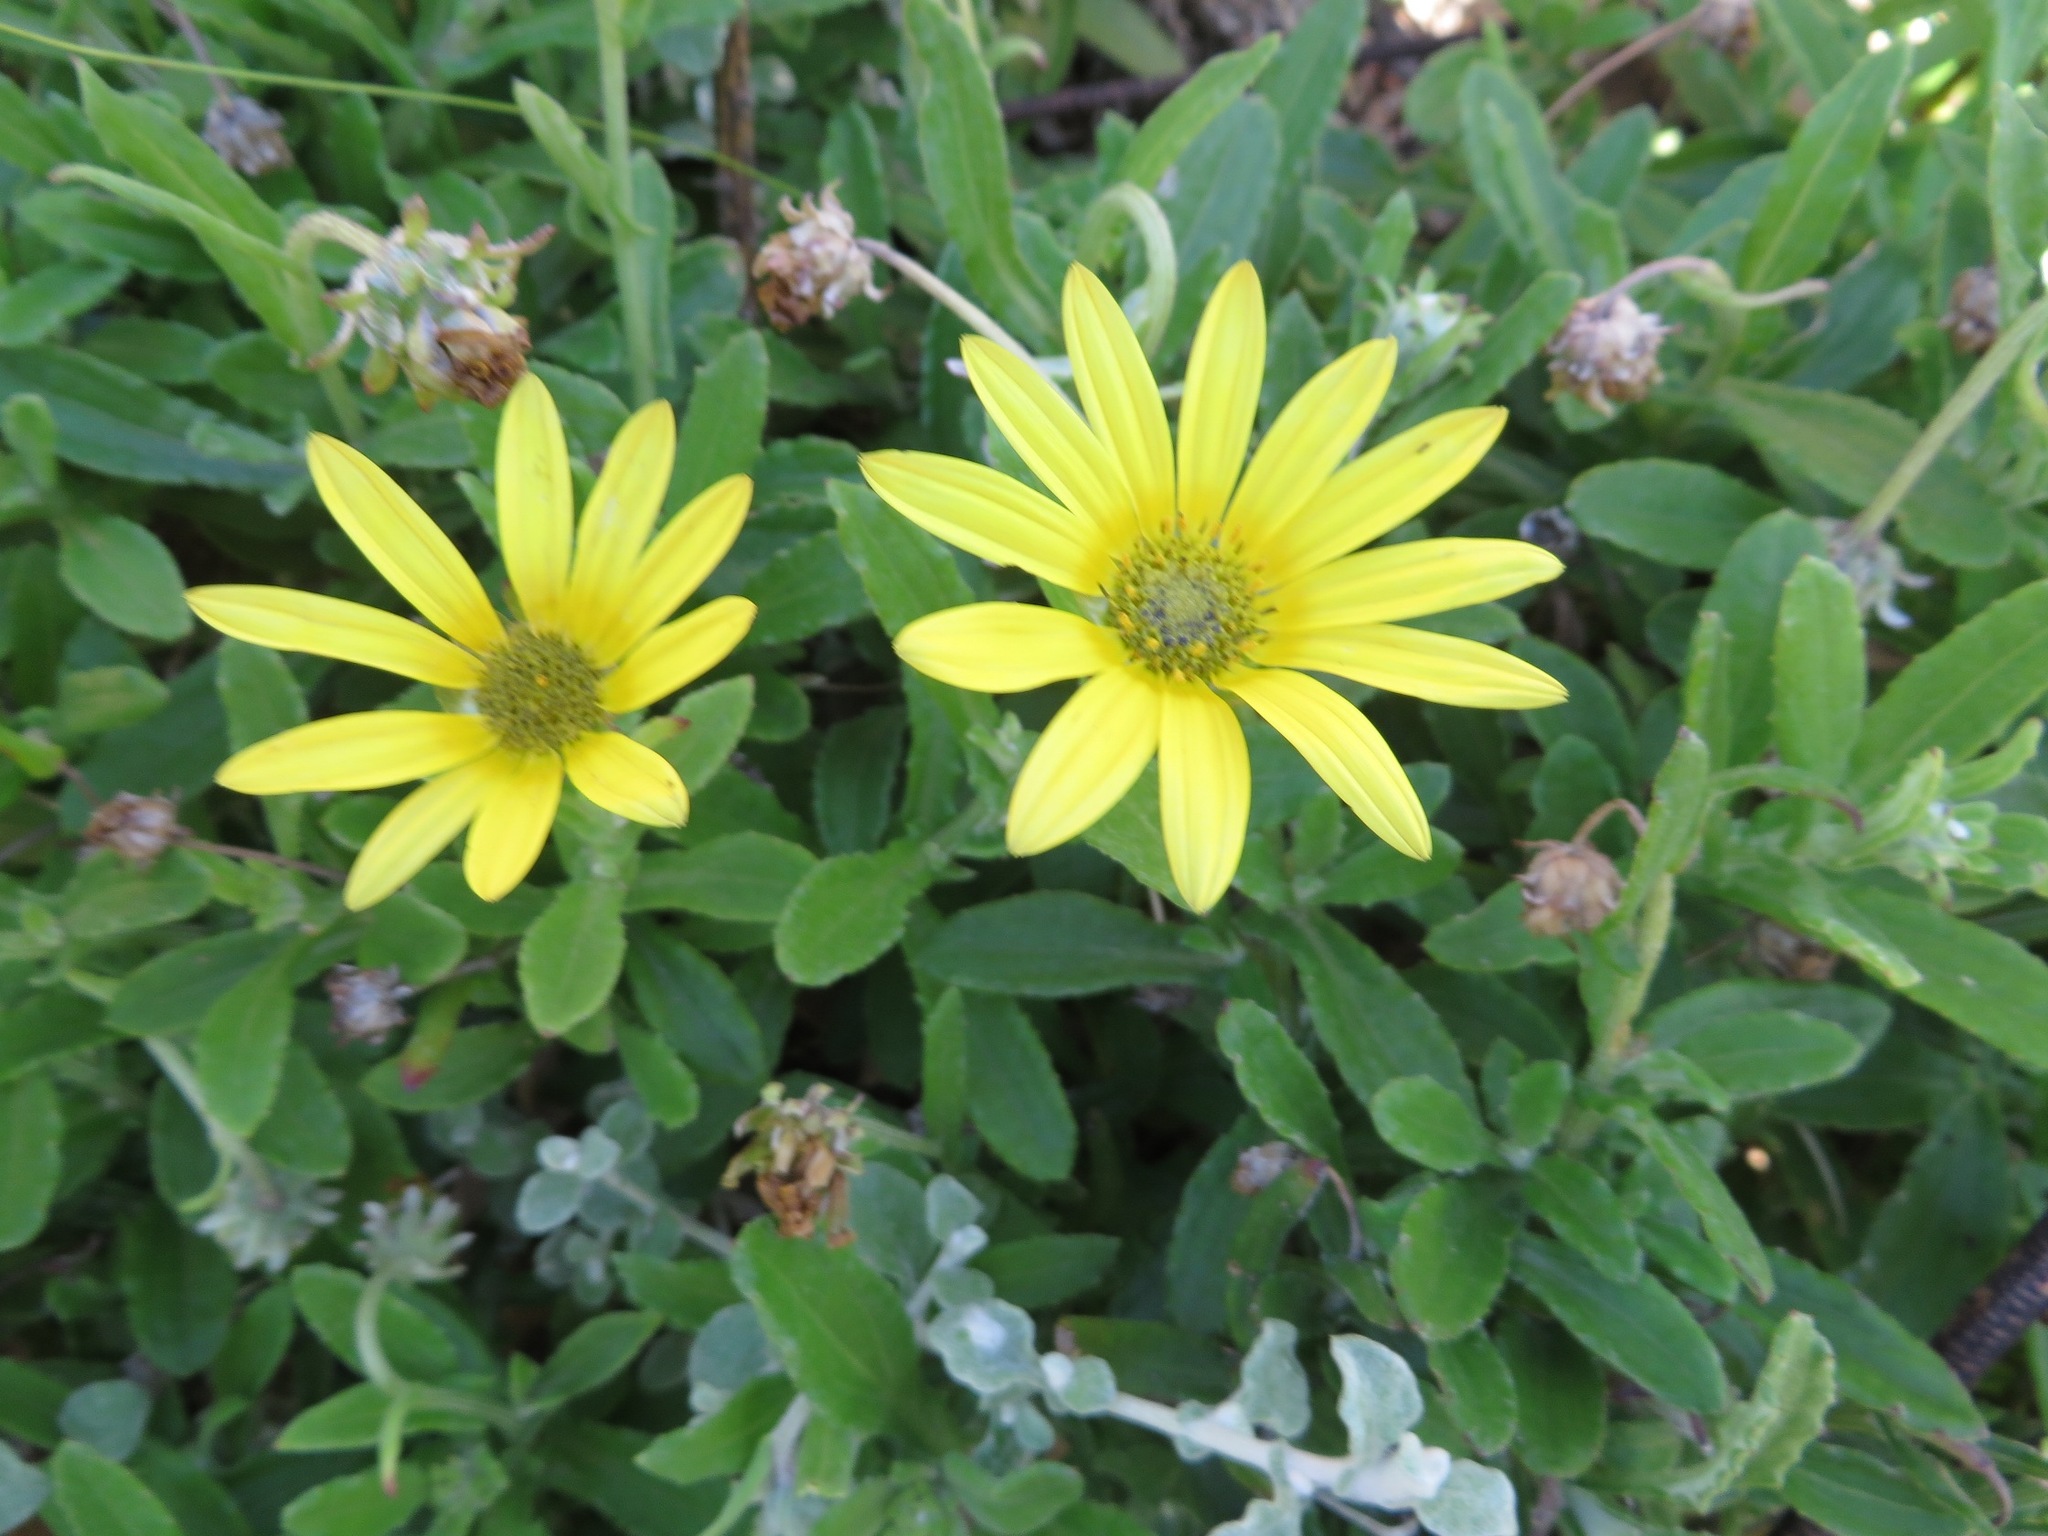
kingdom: Plantae
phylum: Tracheophyta
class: Magnoliopsida
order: Asterales
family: Asteraceae
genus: Arctotis
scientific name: Arctotis scabra
